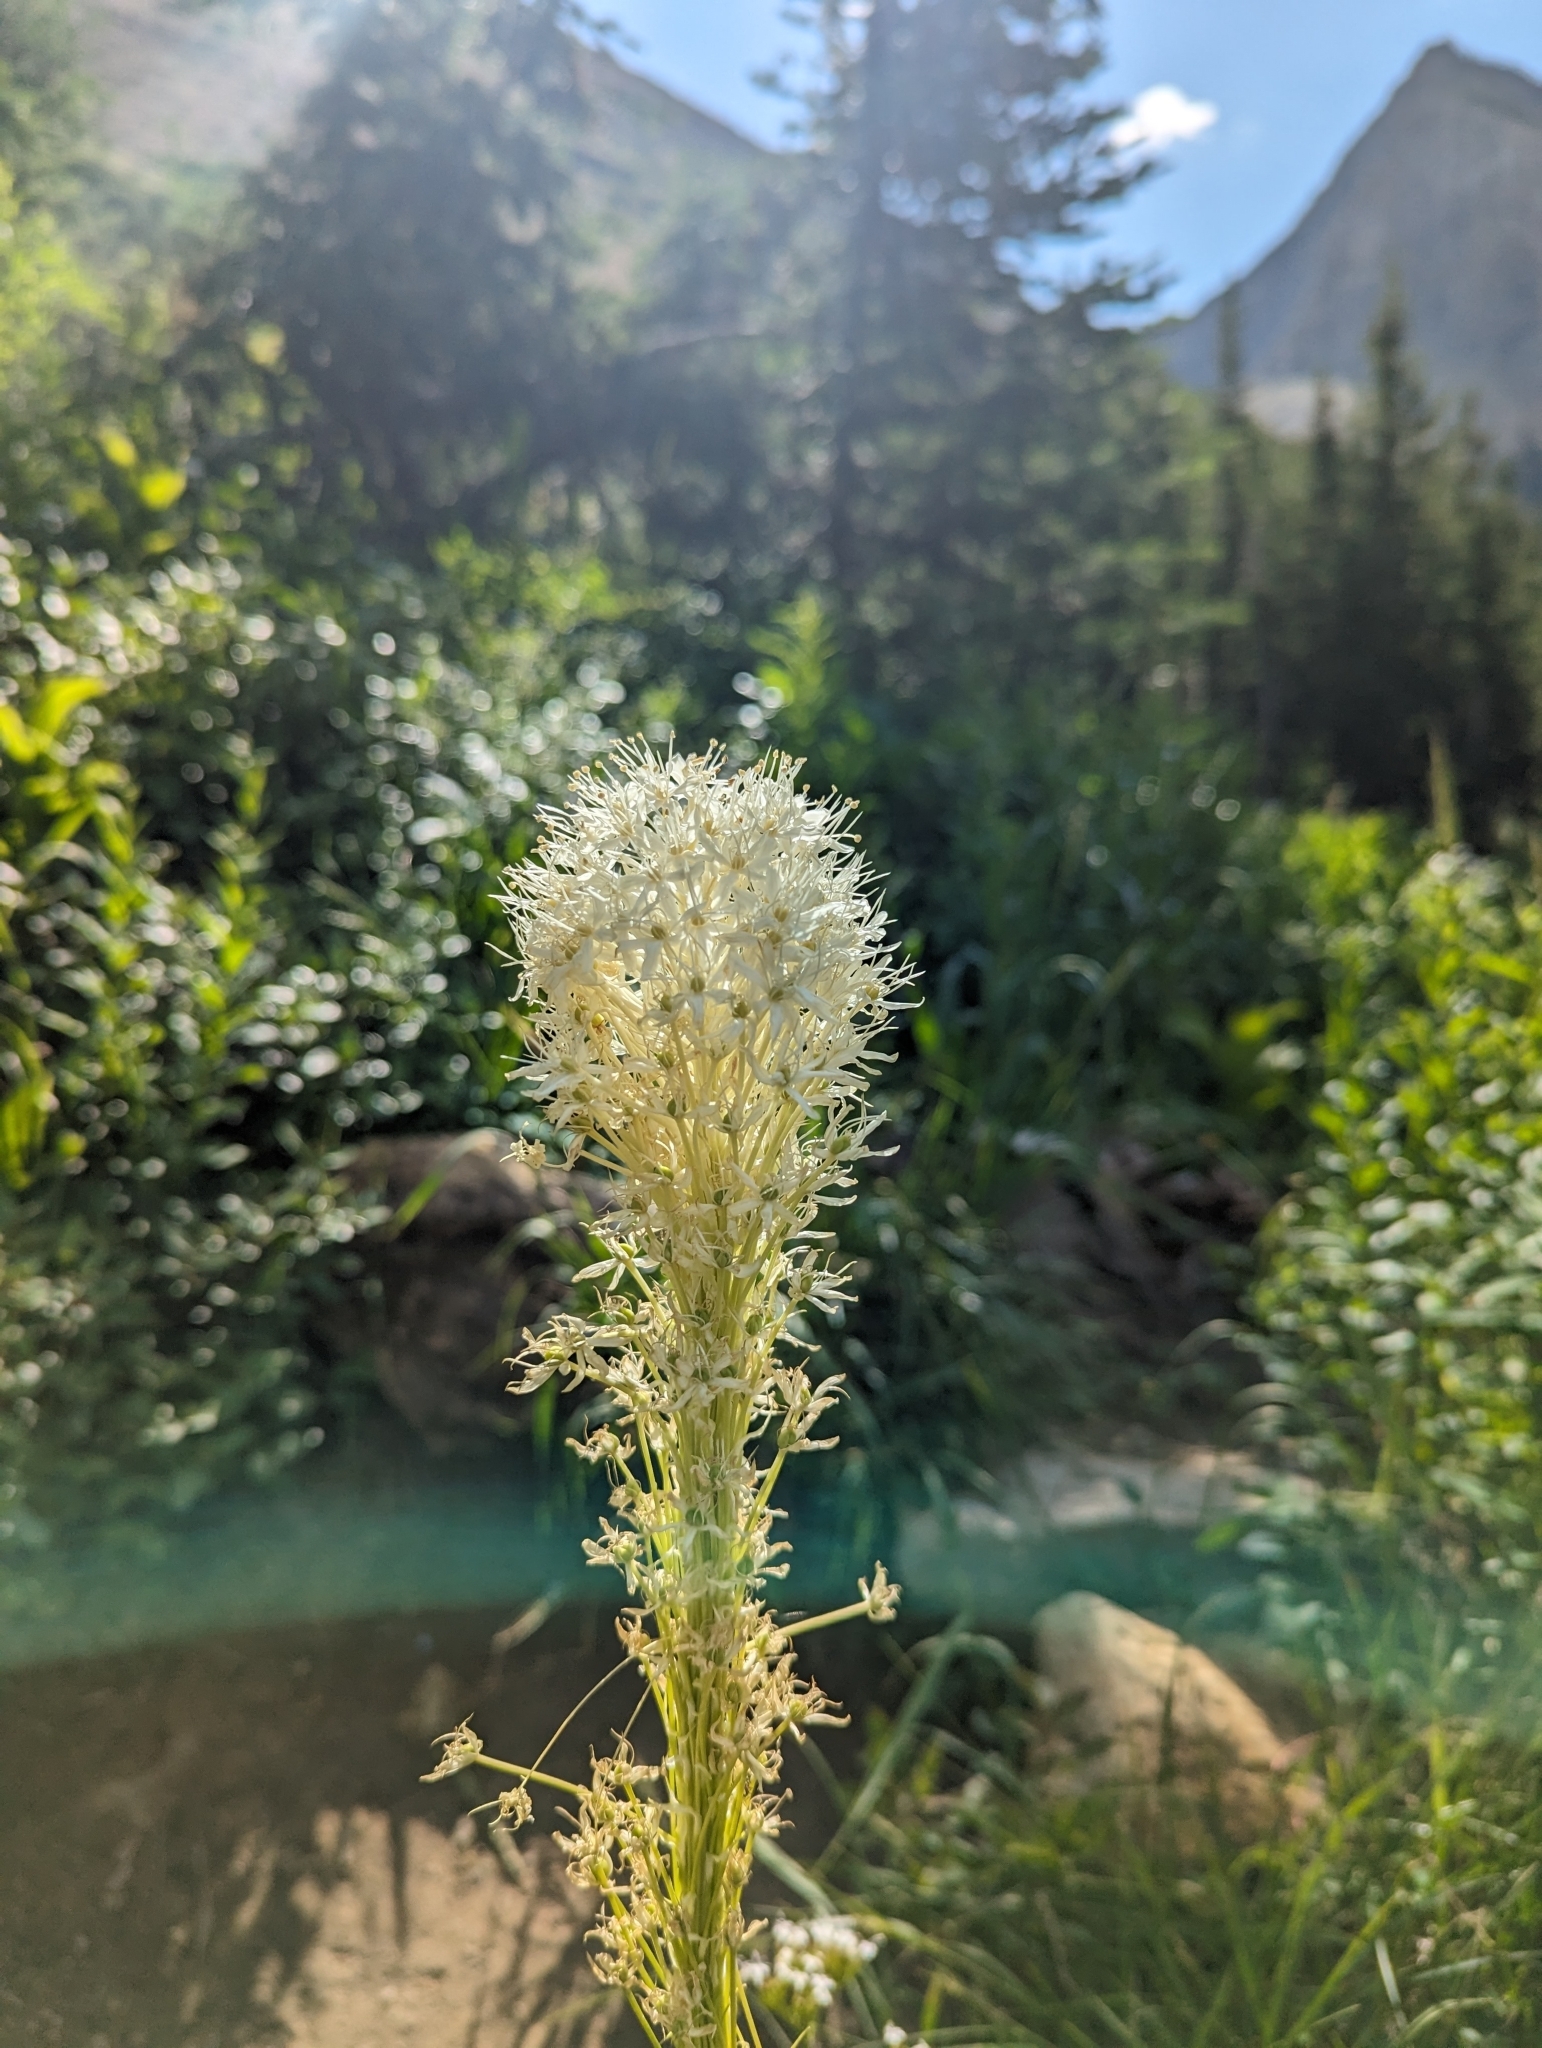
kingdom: Plantae
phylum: Tracheophyta
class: Liliopsida
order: Liliales
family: Melanthiaceae
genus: Xerophyllum
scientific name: Xerophyllum tenax
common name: Bear-grass
